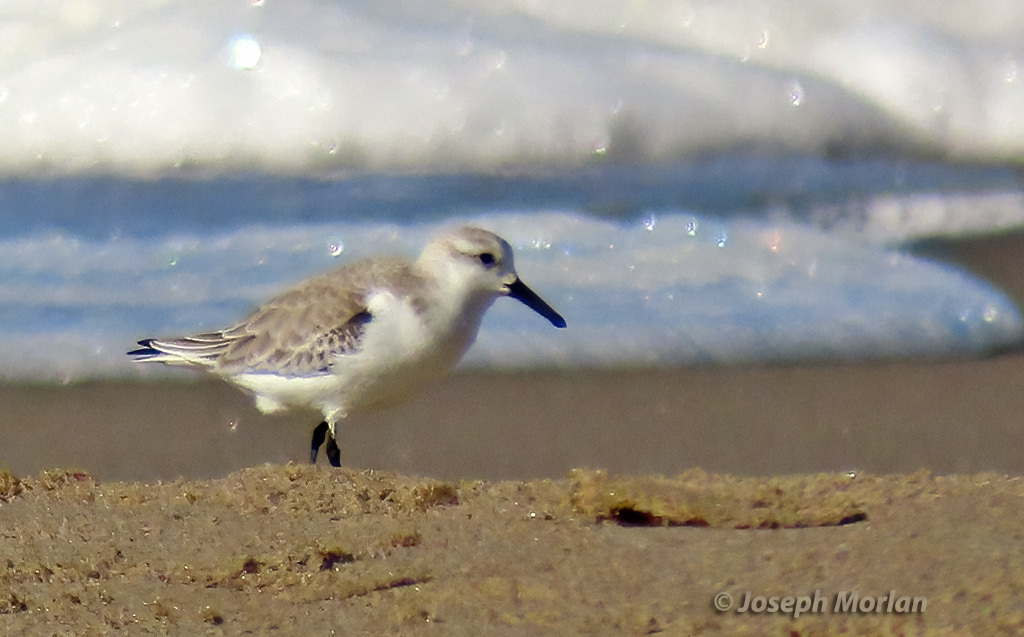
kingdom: Animalia
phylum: Chordata
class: Aves
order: Charadriiformes
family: Scolopacidae
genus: Calidris
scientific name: Calidris alba
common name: Sanderling
